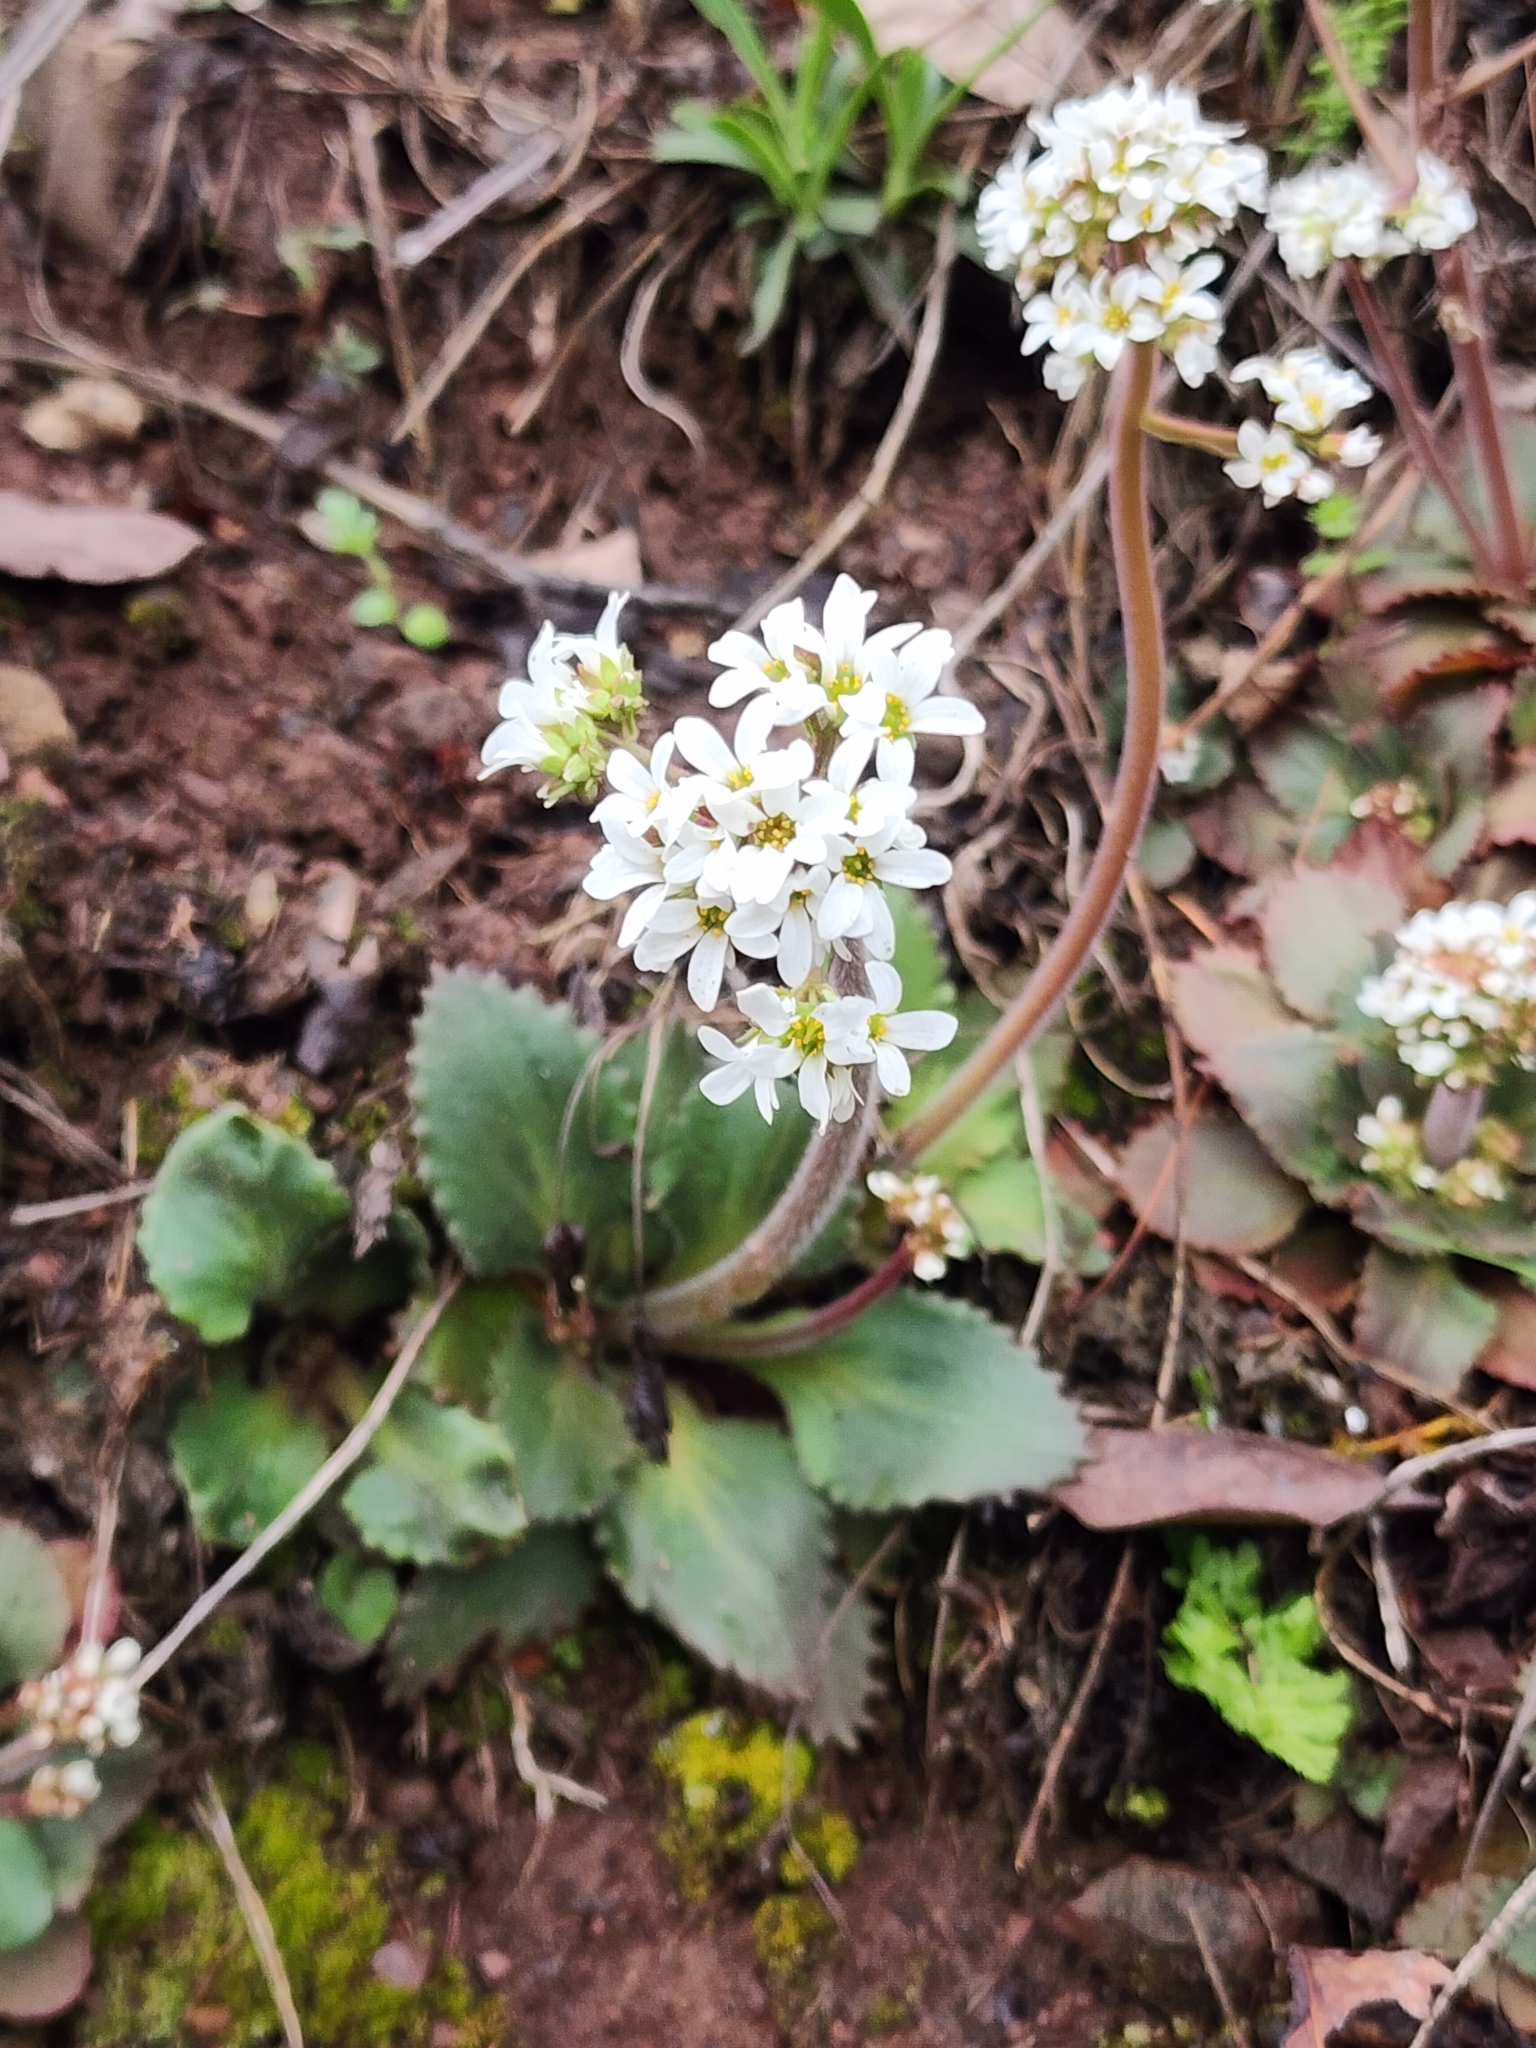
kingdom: Plantae
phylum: Tracheophyta
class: Magnoliopsida
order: Saxifragales
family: Saxifragaceae
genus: Micranthes
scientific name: Micranthes virginiensis
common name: Early saxifrage
